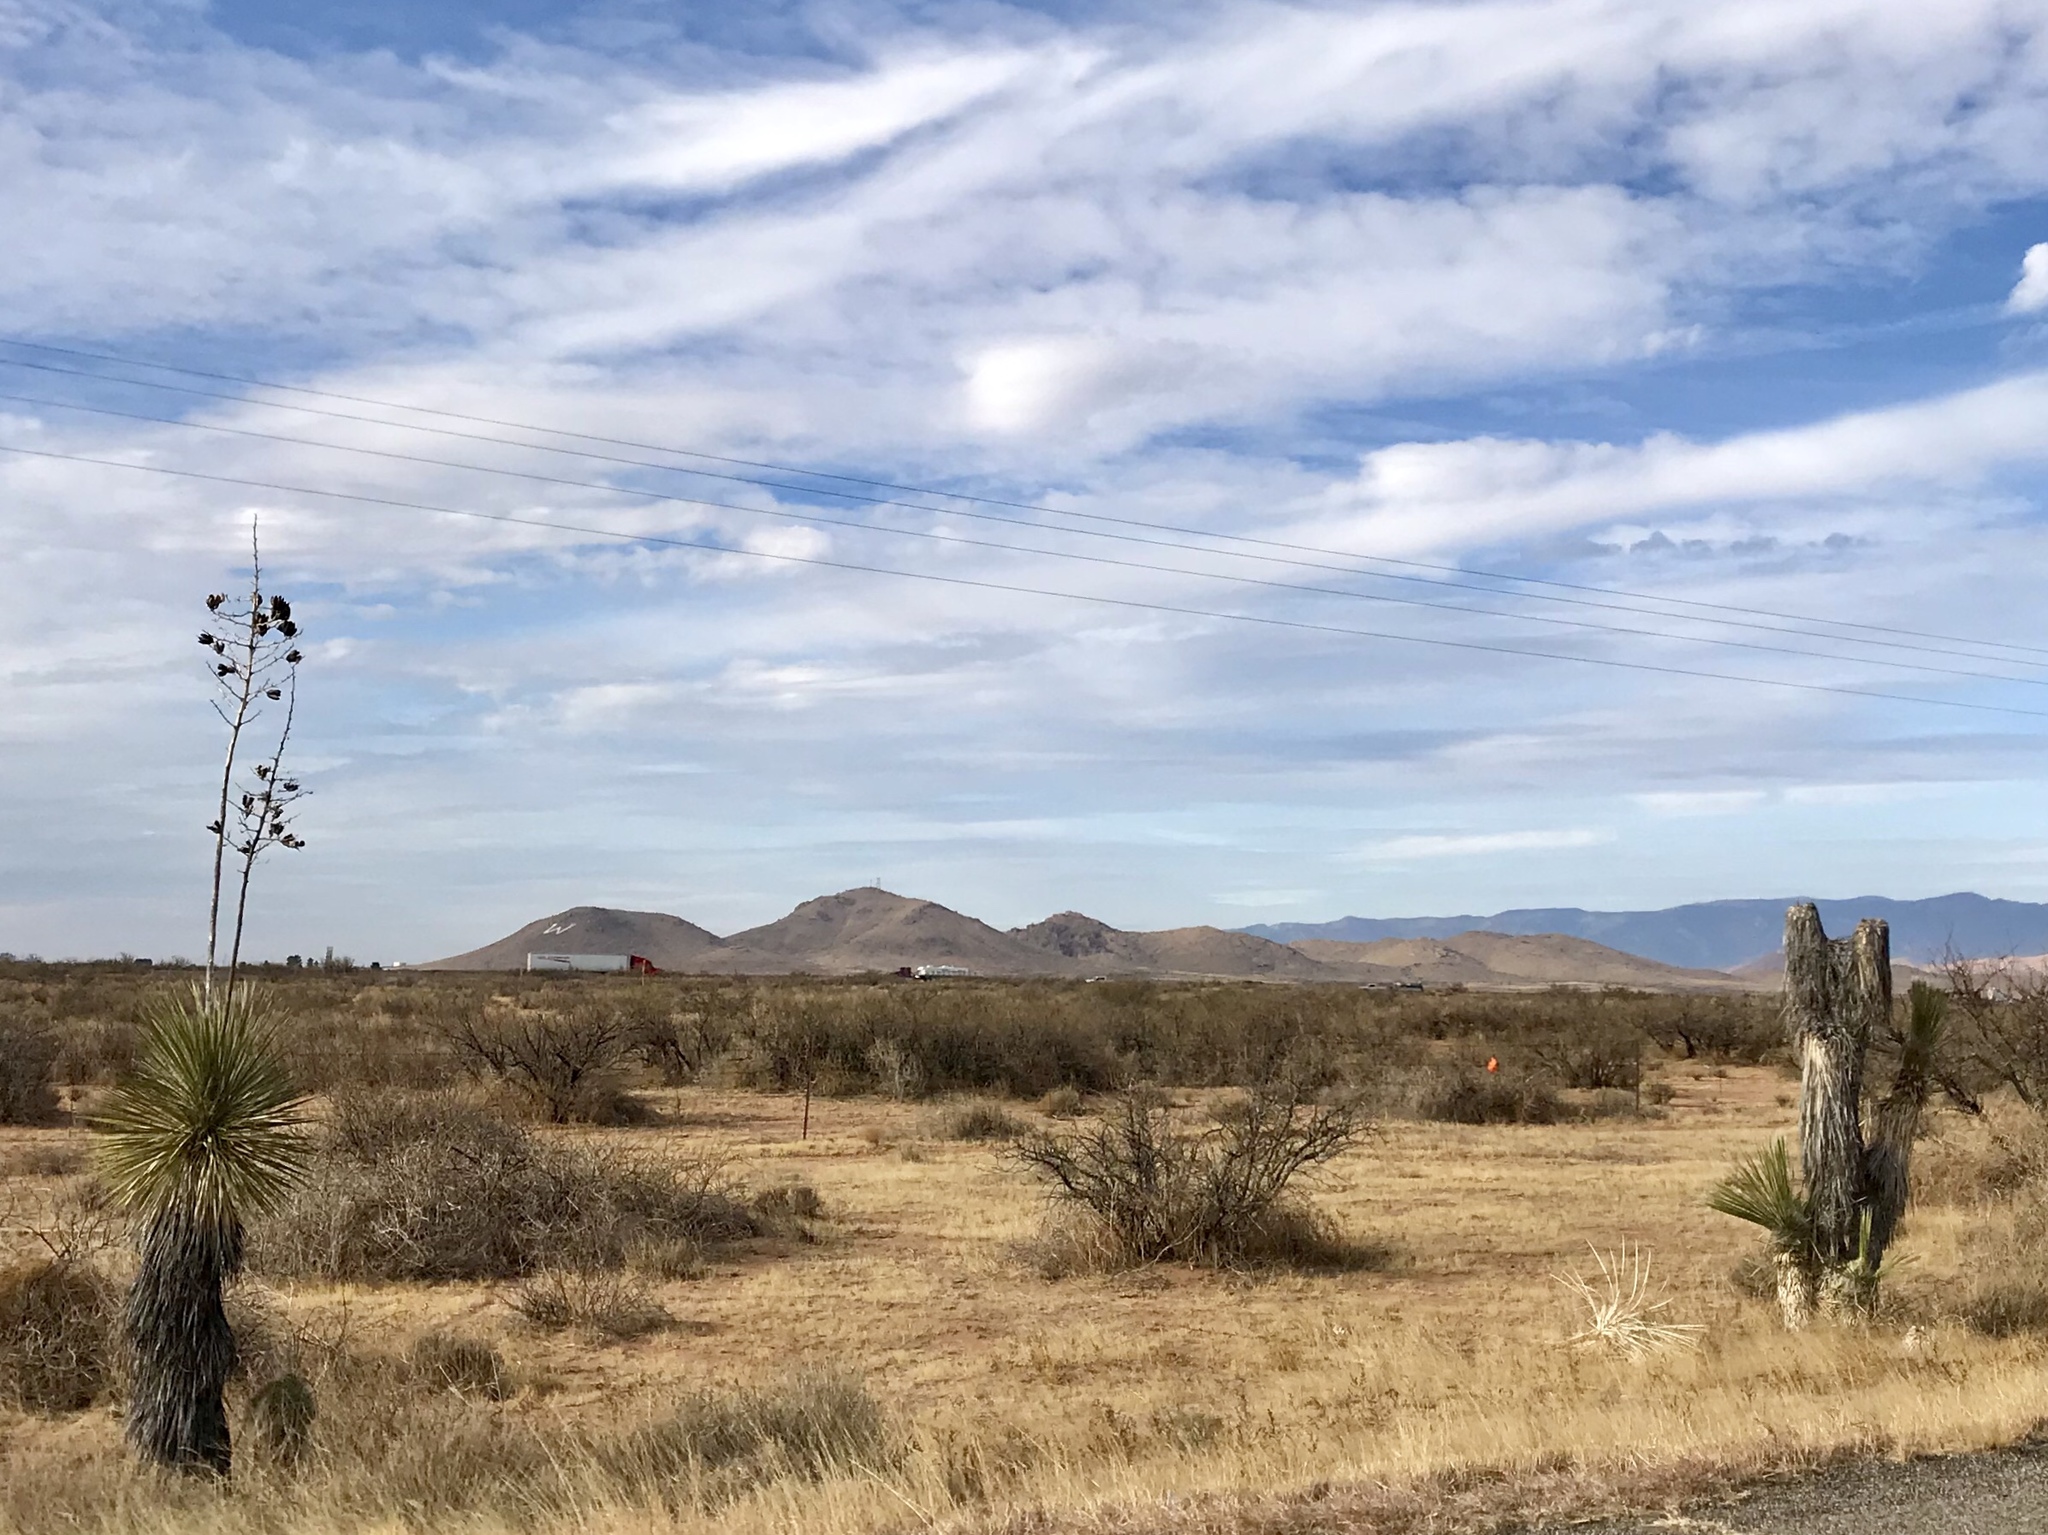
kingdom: Plantae
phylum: Tracheophyta
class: Liliopsida
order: Asparagales
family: Asparagaceae
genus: Yucca
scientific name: Yucca elata
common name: Palmella
